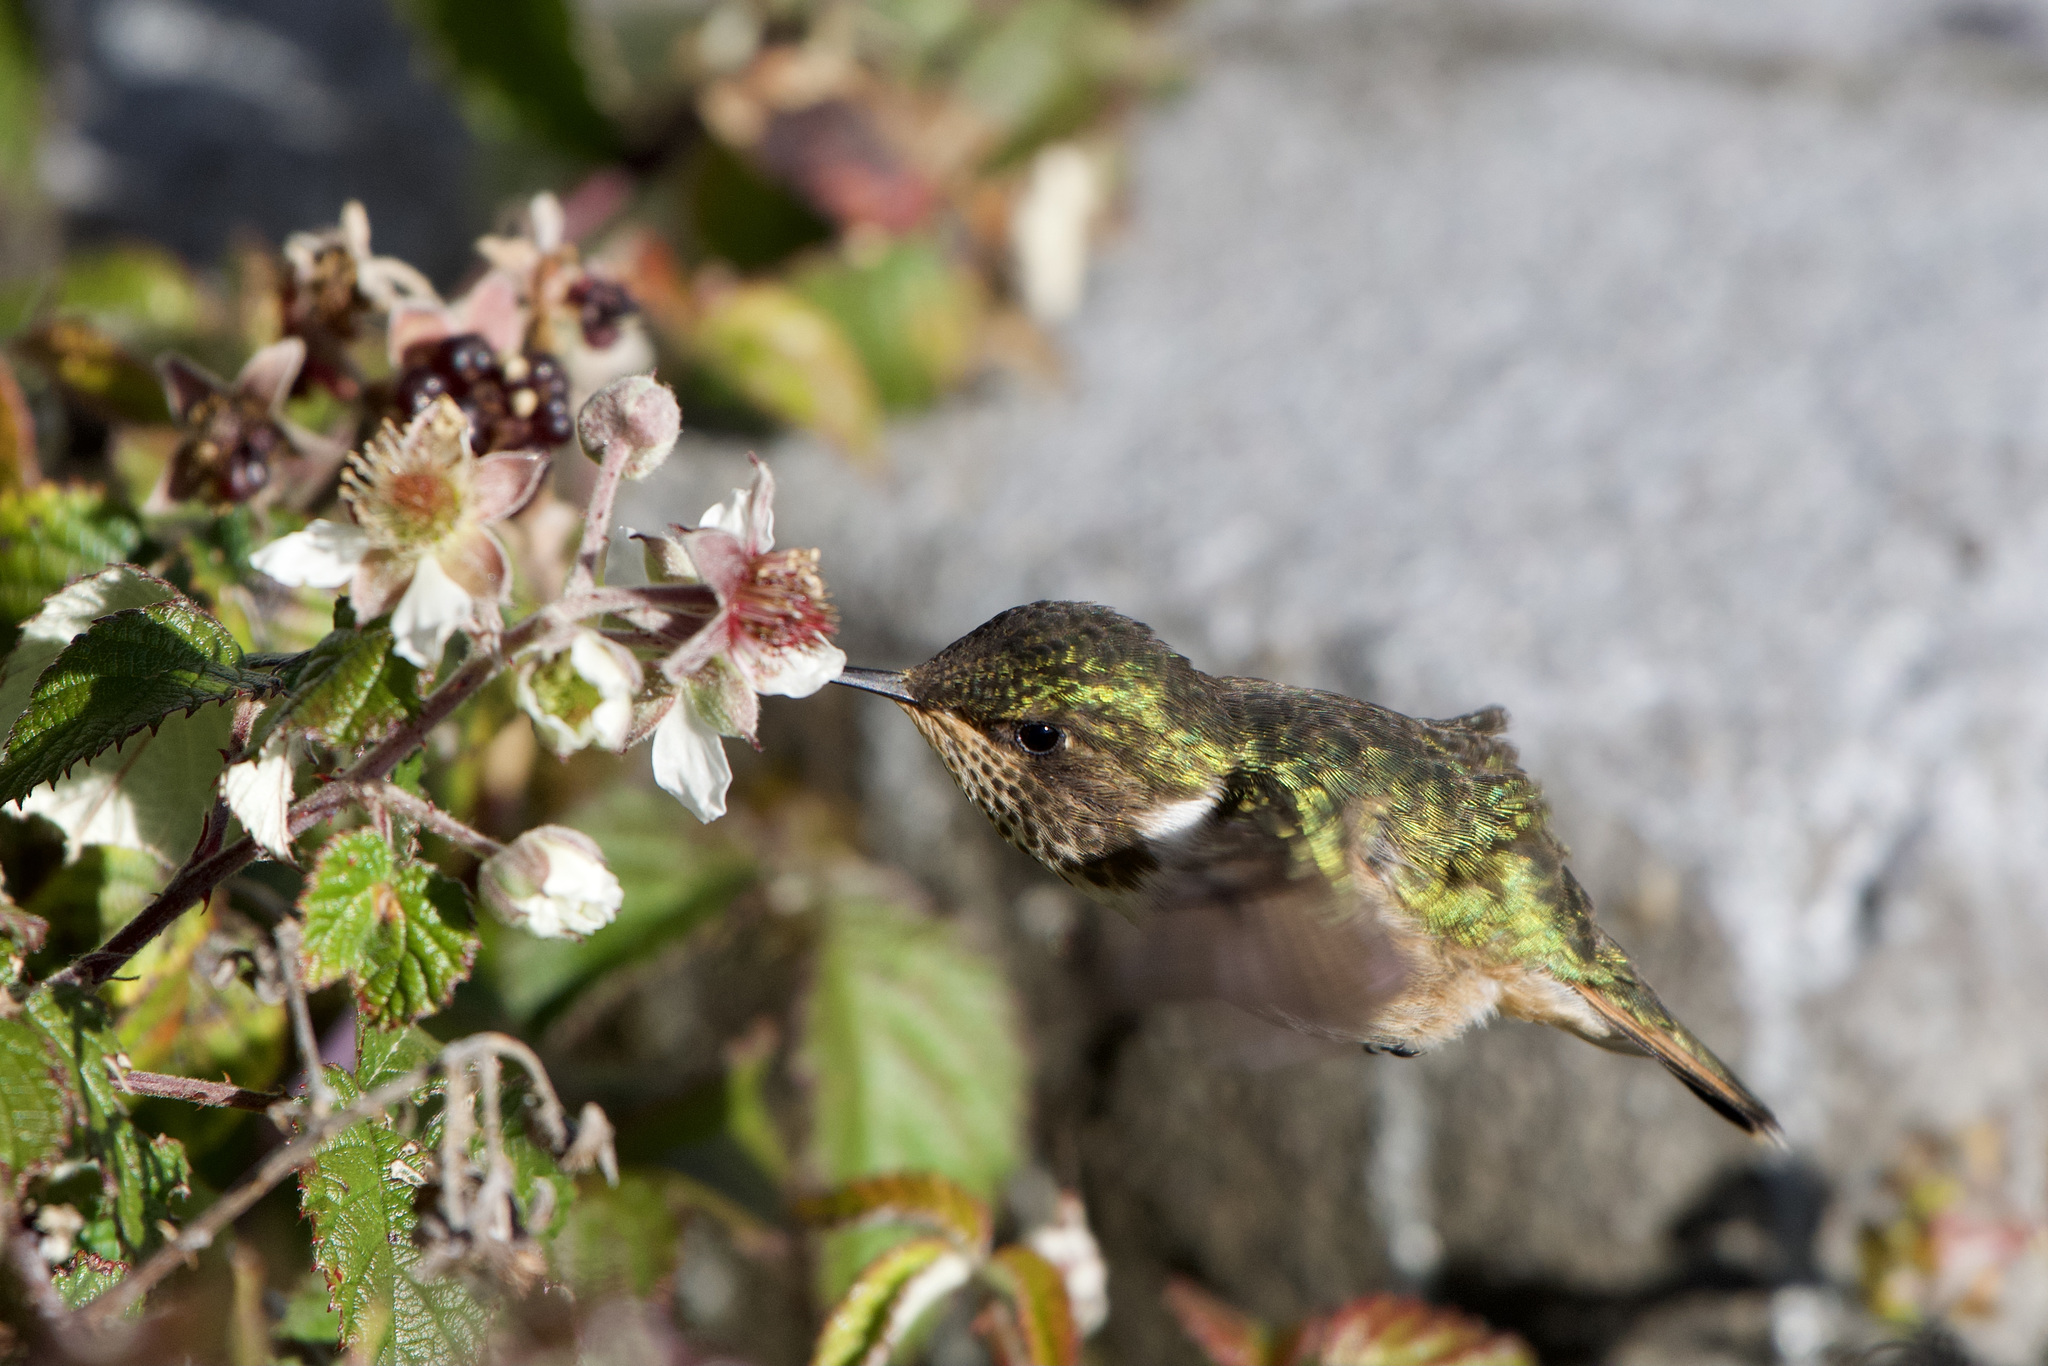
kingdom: Animalia
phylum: Chordata
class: Aves
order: Apodiformes
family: Trochilidae
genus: Selasphorus
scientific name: Selasphorus flammula
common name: Volcano hummingbird
